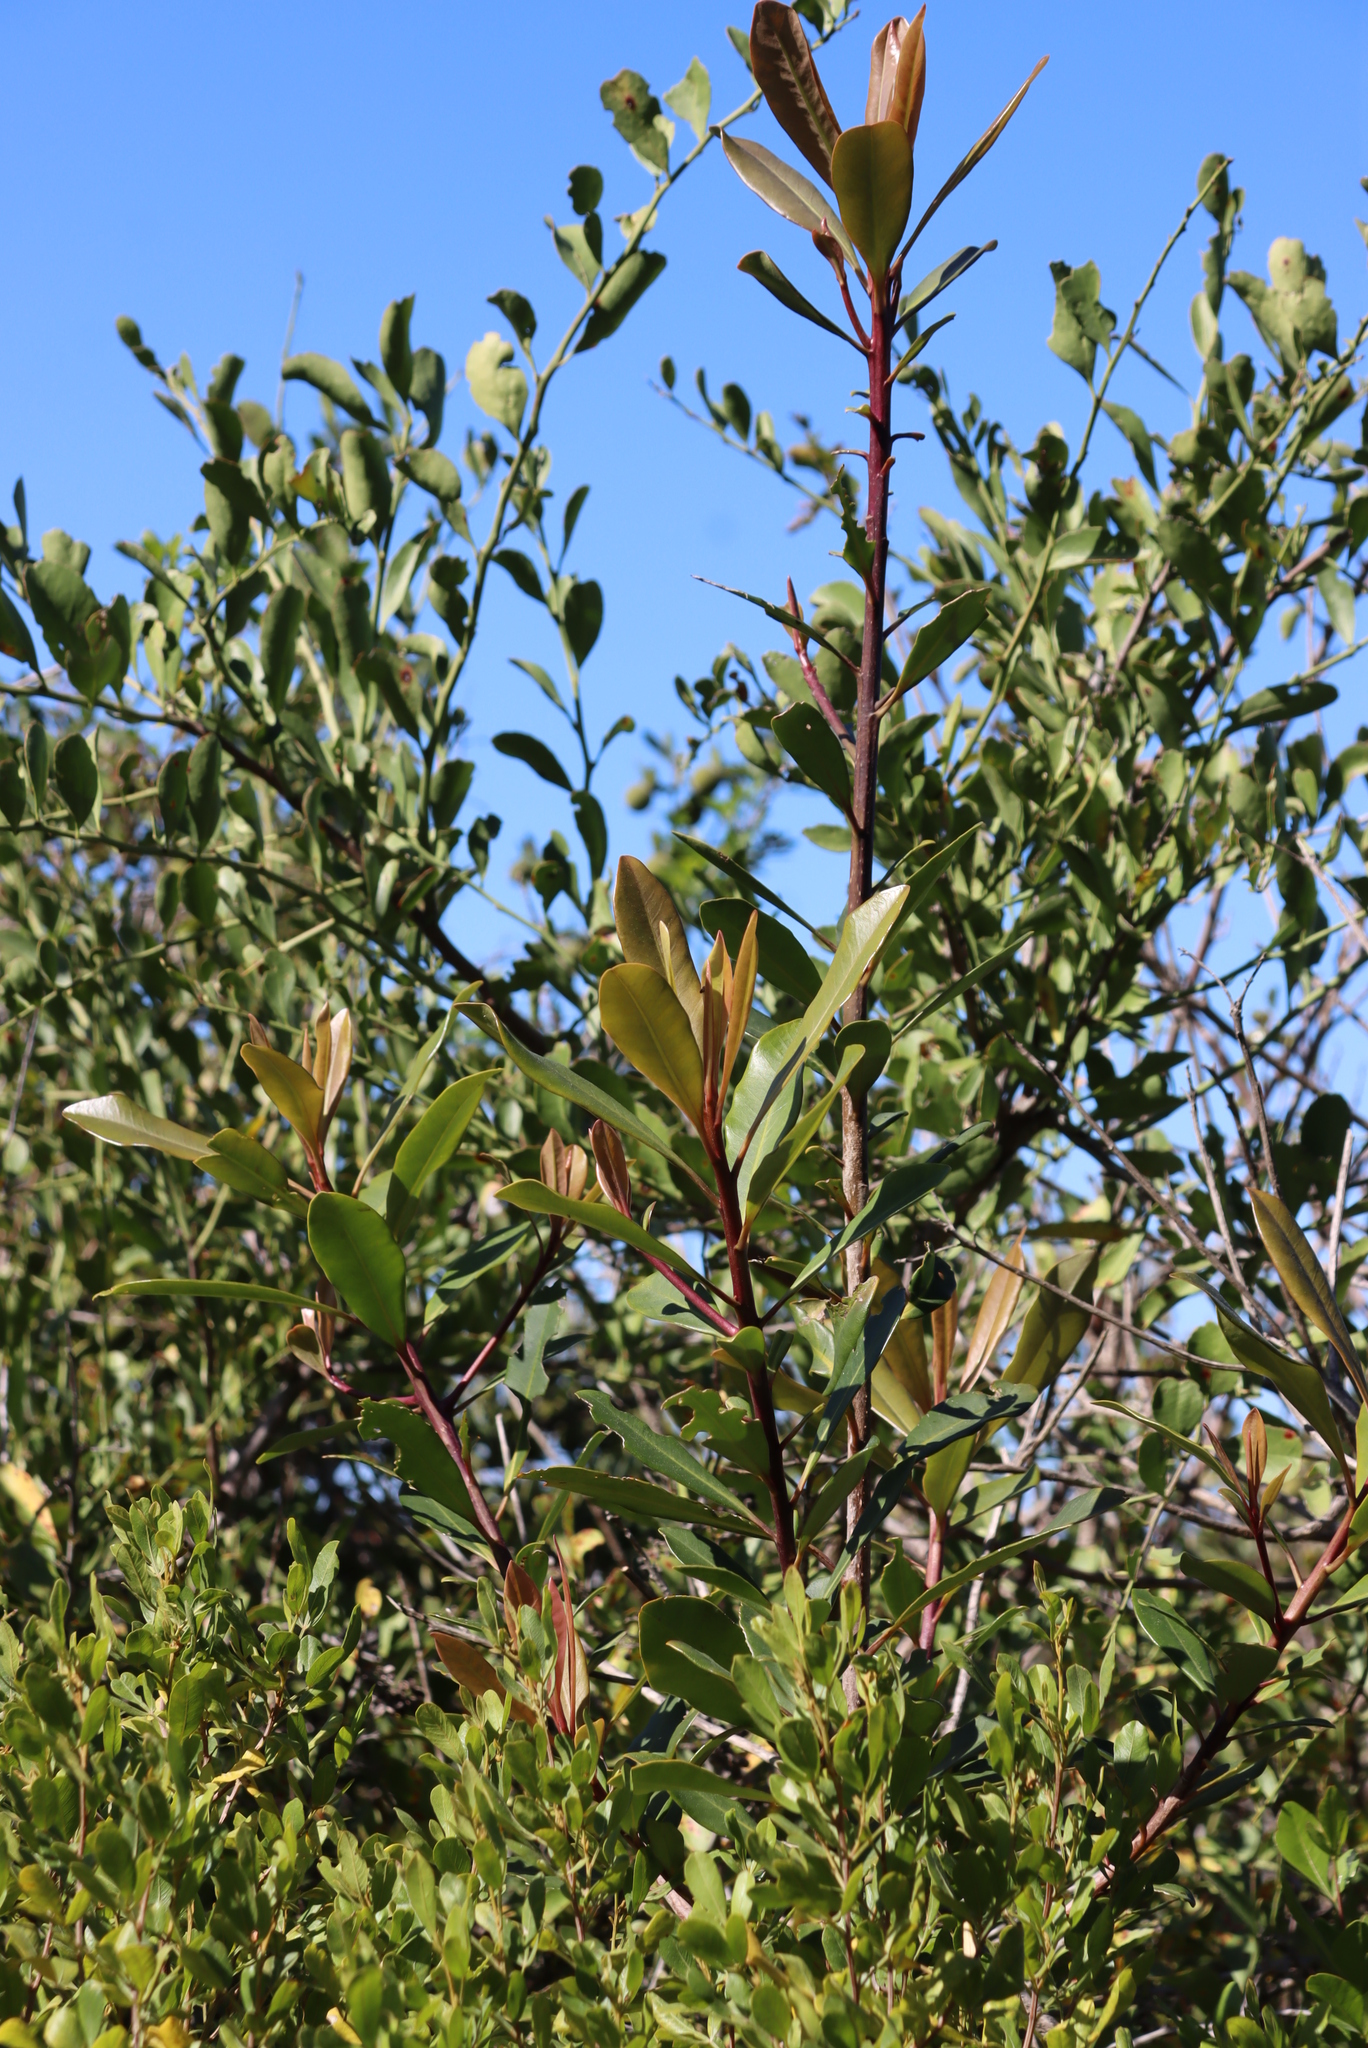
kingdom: Plantae
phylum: Tracheophyta
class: Magnoliopsida
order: Ericales
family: Primulaceae
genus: Myrsine
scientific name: Myrsine melanophloeos
